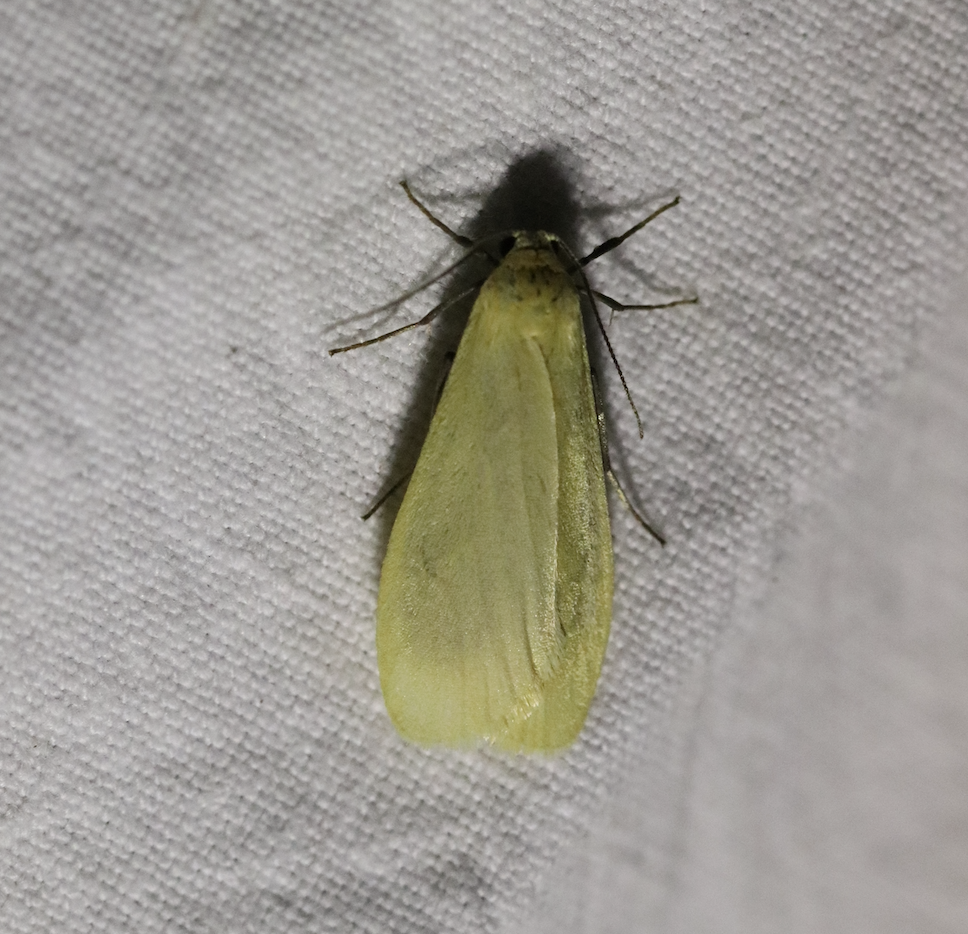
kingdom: Animalia
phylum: Arthropoda
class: Insecta
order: Lepidoptera
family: Erebidae
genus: Wittia
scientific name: Wittia sororcula
